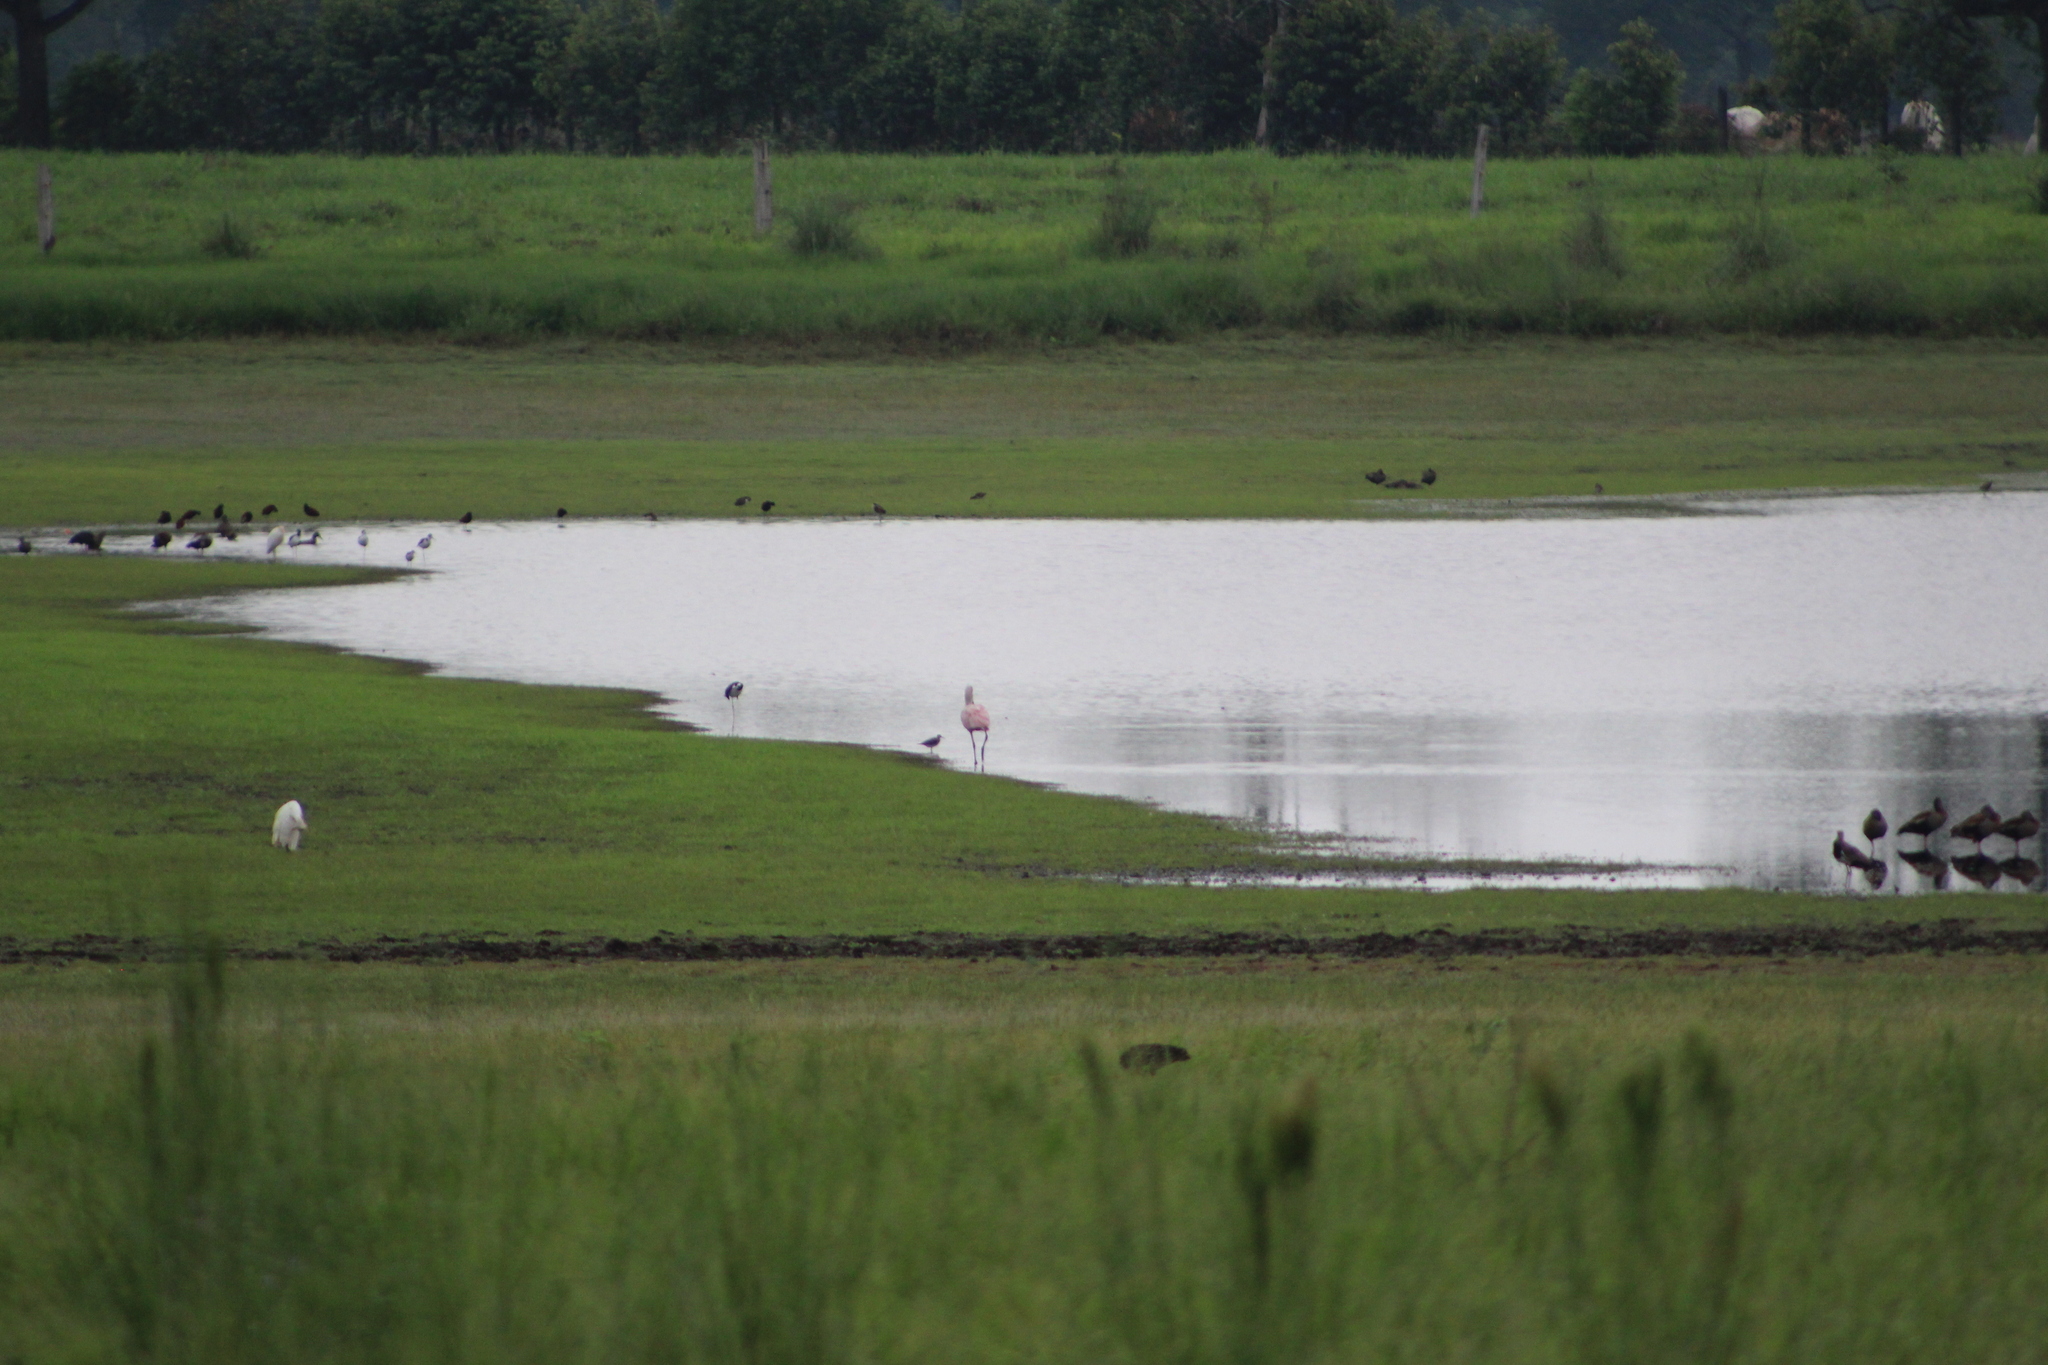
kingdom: Animalia
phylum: Chordata
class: Aves
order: Pelecaniformes
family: Threskiornithidae
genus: Platalea
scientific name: Platalea ajaja
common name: Roseate spoonbill
